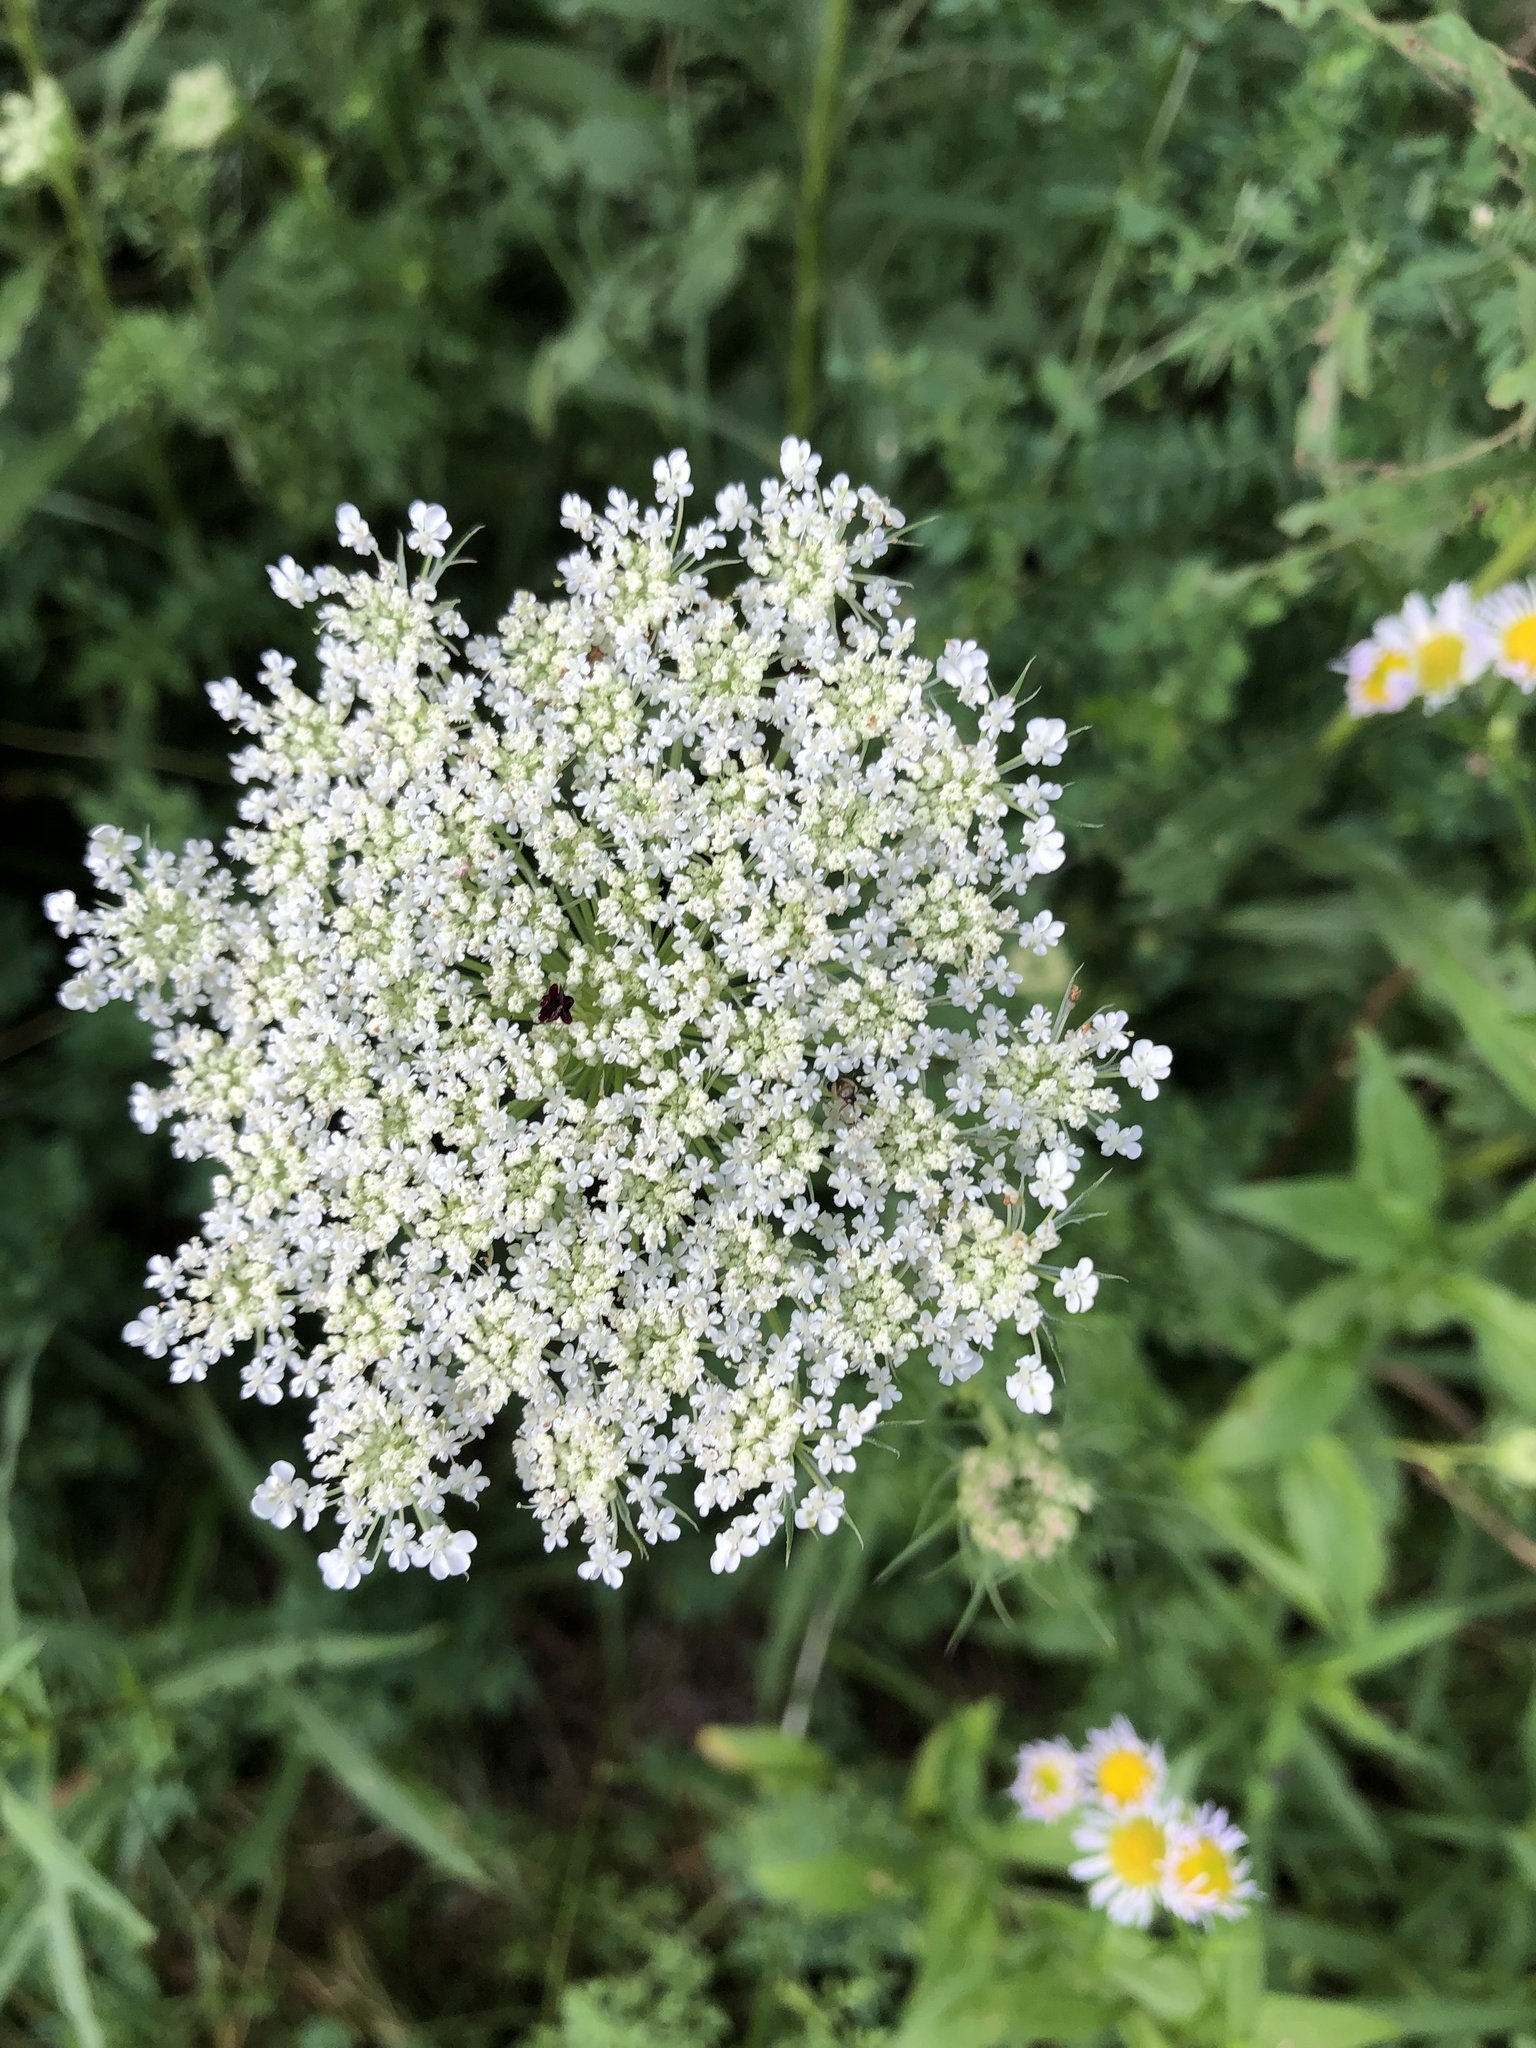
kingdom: Plantae
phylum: Tracheophyta
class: Magnoliopsida
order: Apiales
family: Apiaceae
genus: Daucus
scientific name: Daucus carota
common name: Wild carrot
